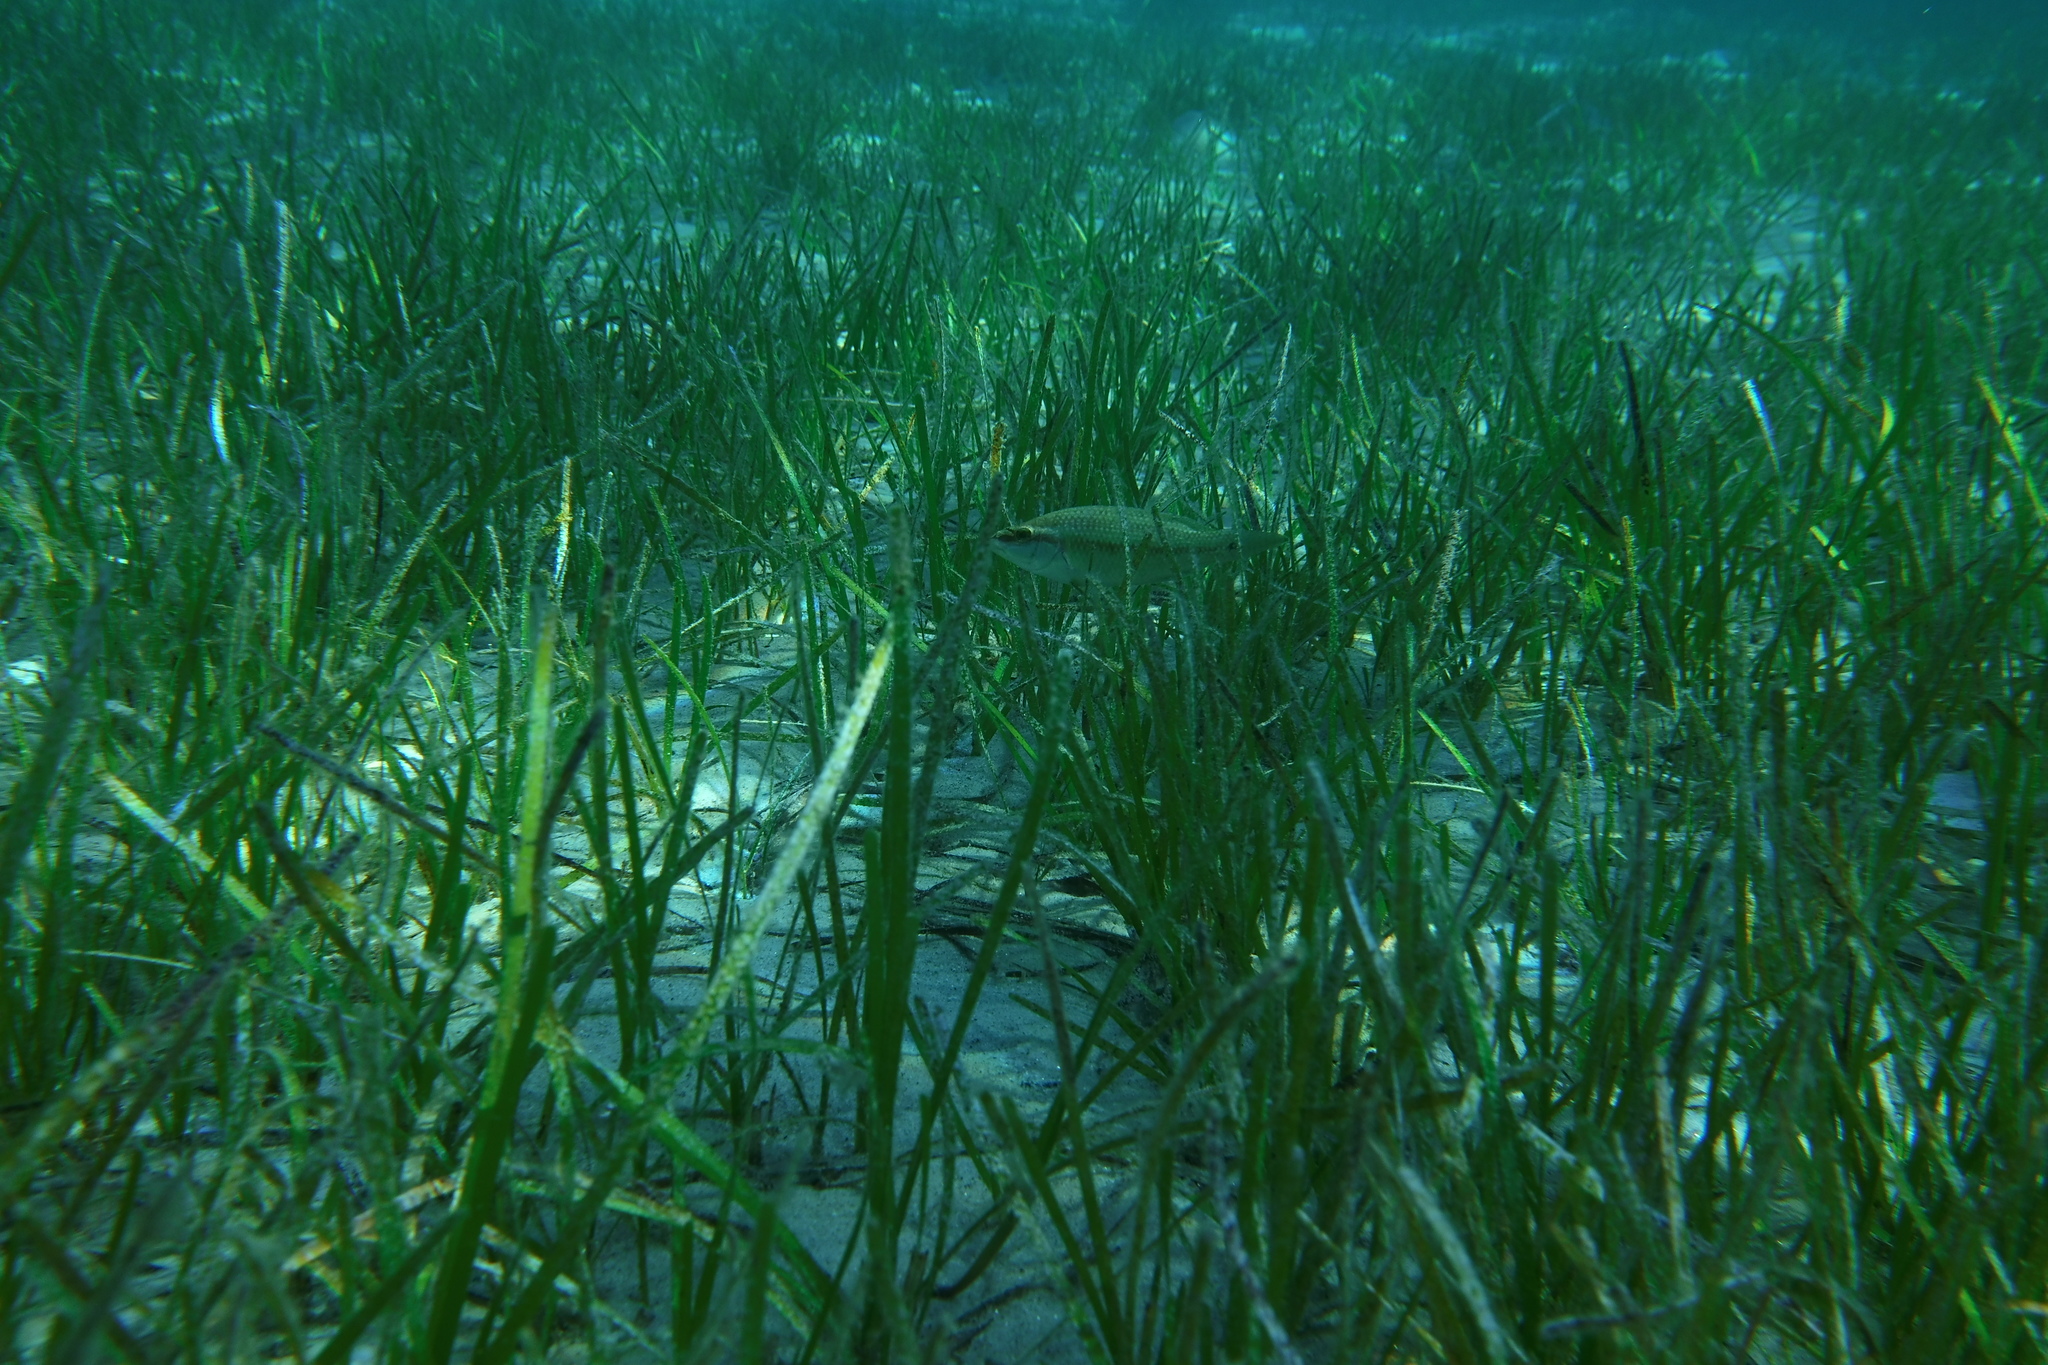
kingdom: Animalia
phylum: Chordata
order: Perciformes
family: Labridae
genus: Symphodus
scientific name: Symphodus tinca
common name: Peacock wrasse
